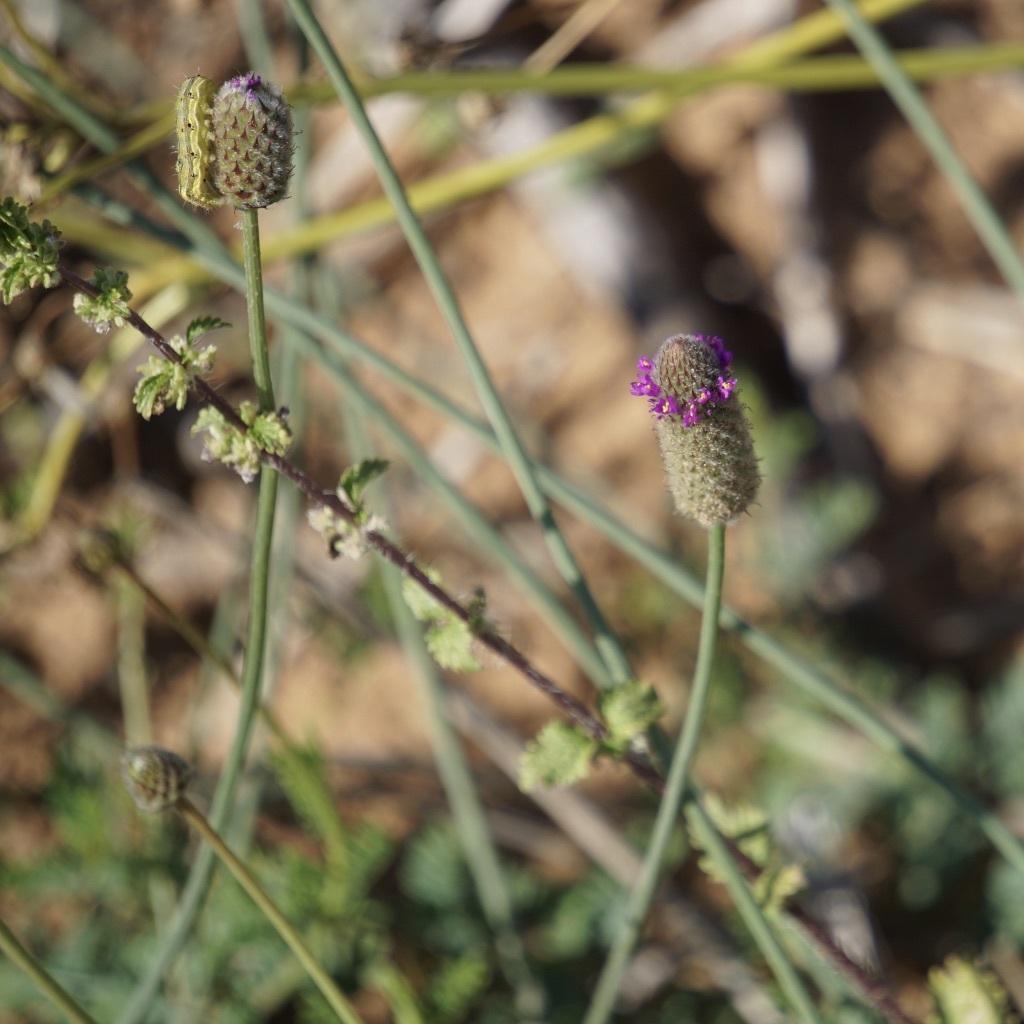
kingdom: Plantae
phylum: Tracheophyta
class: Magnoliopsida
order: Fabales
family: Fabaceae
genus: Dalea
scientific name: Dalea emarginata
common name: Wedgeleaf prairie clover
